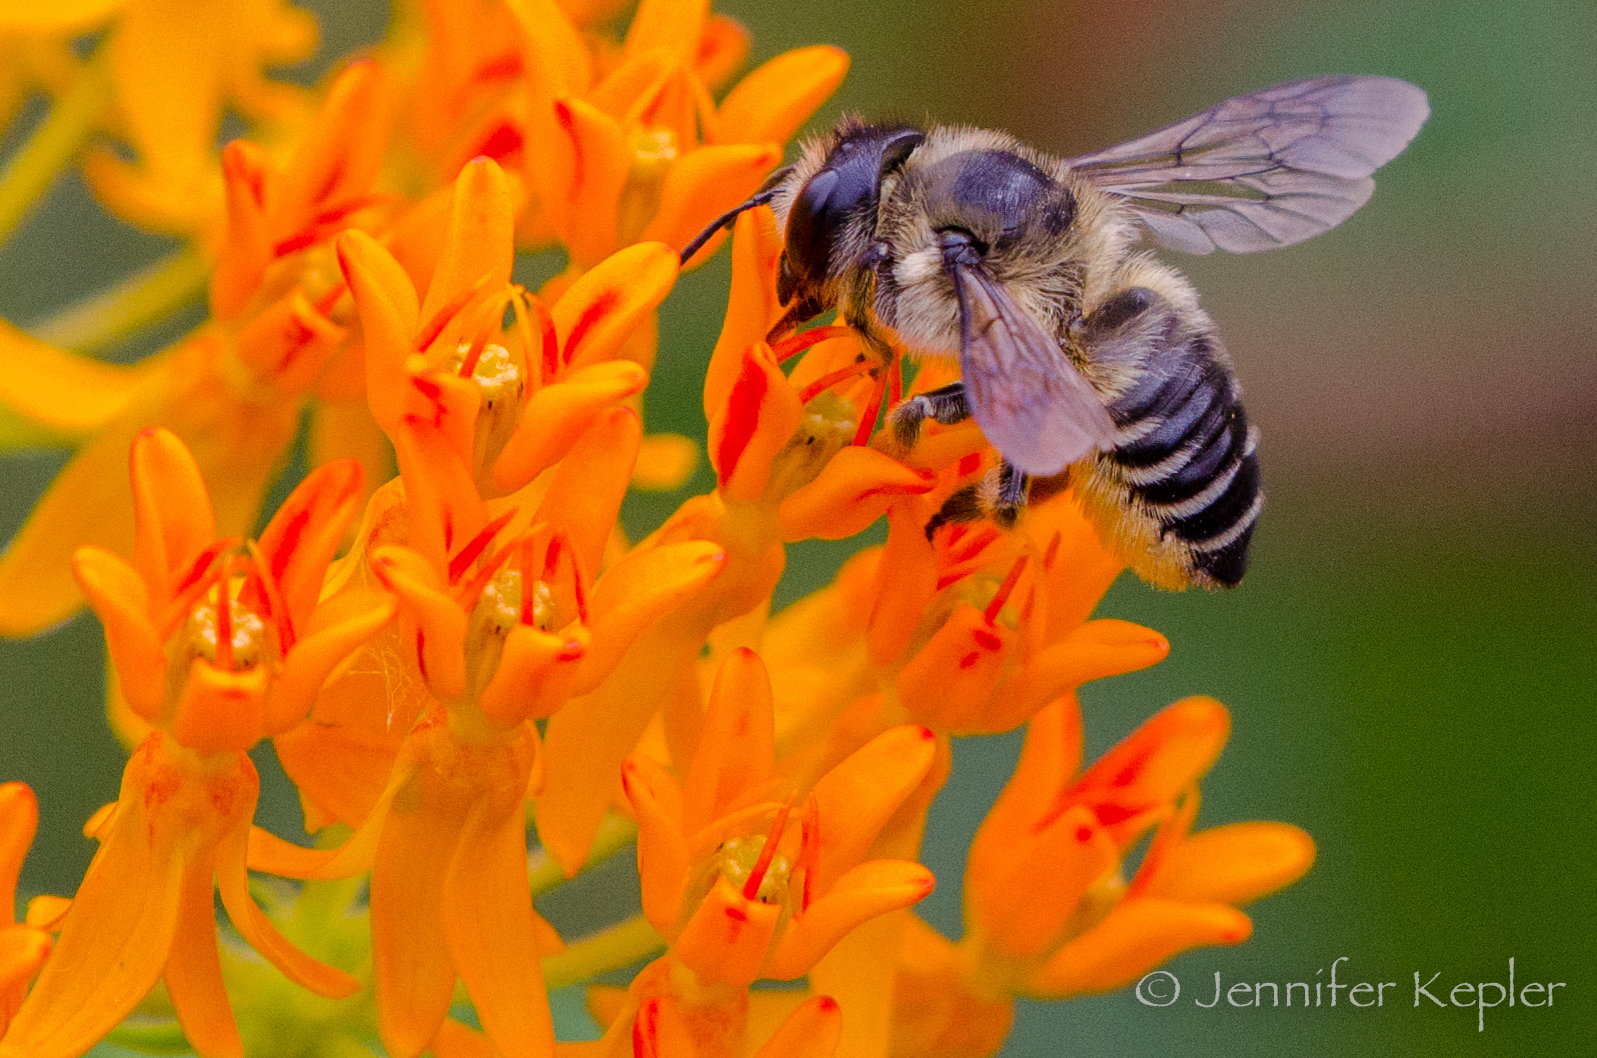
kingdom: Animalia
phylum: Arthropoda
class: Insecta
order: Hymenoptera
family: Megachilidae
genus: Megachile
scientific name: Megachile
